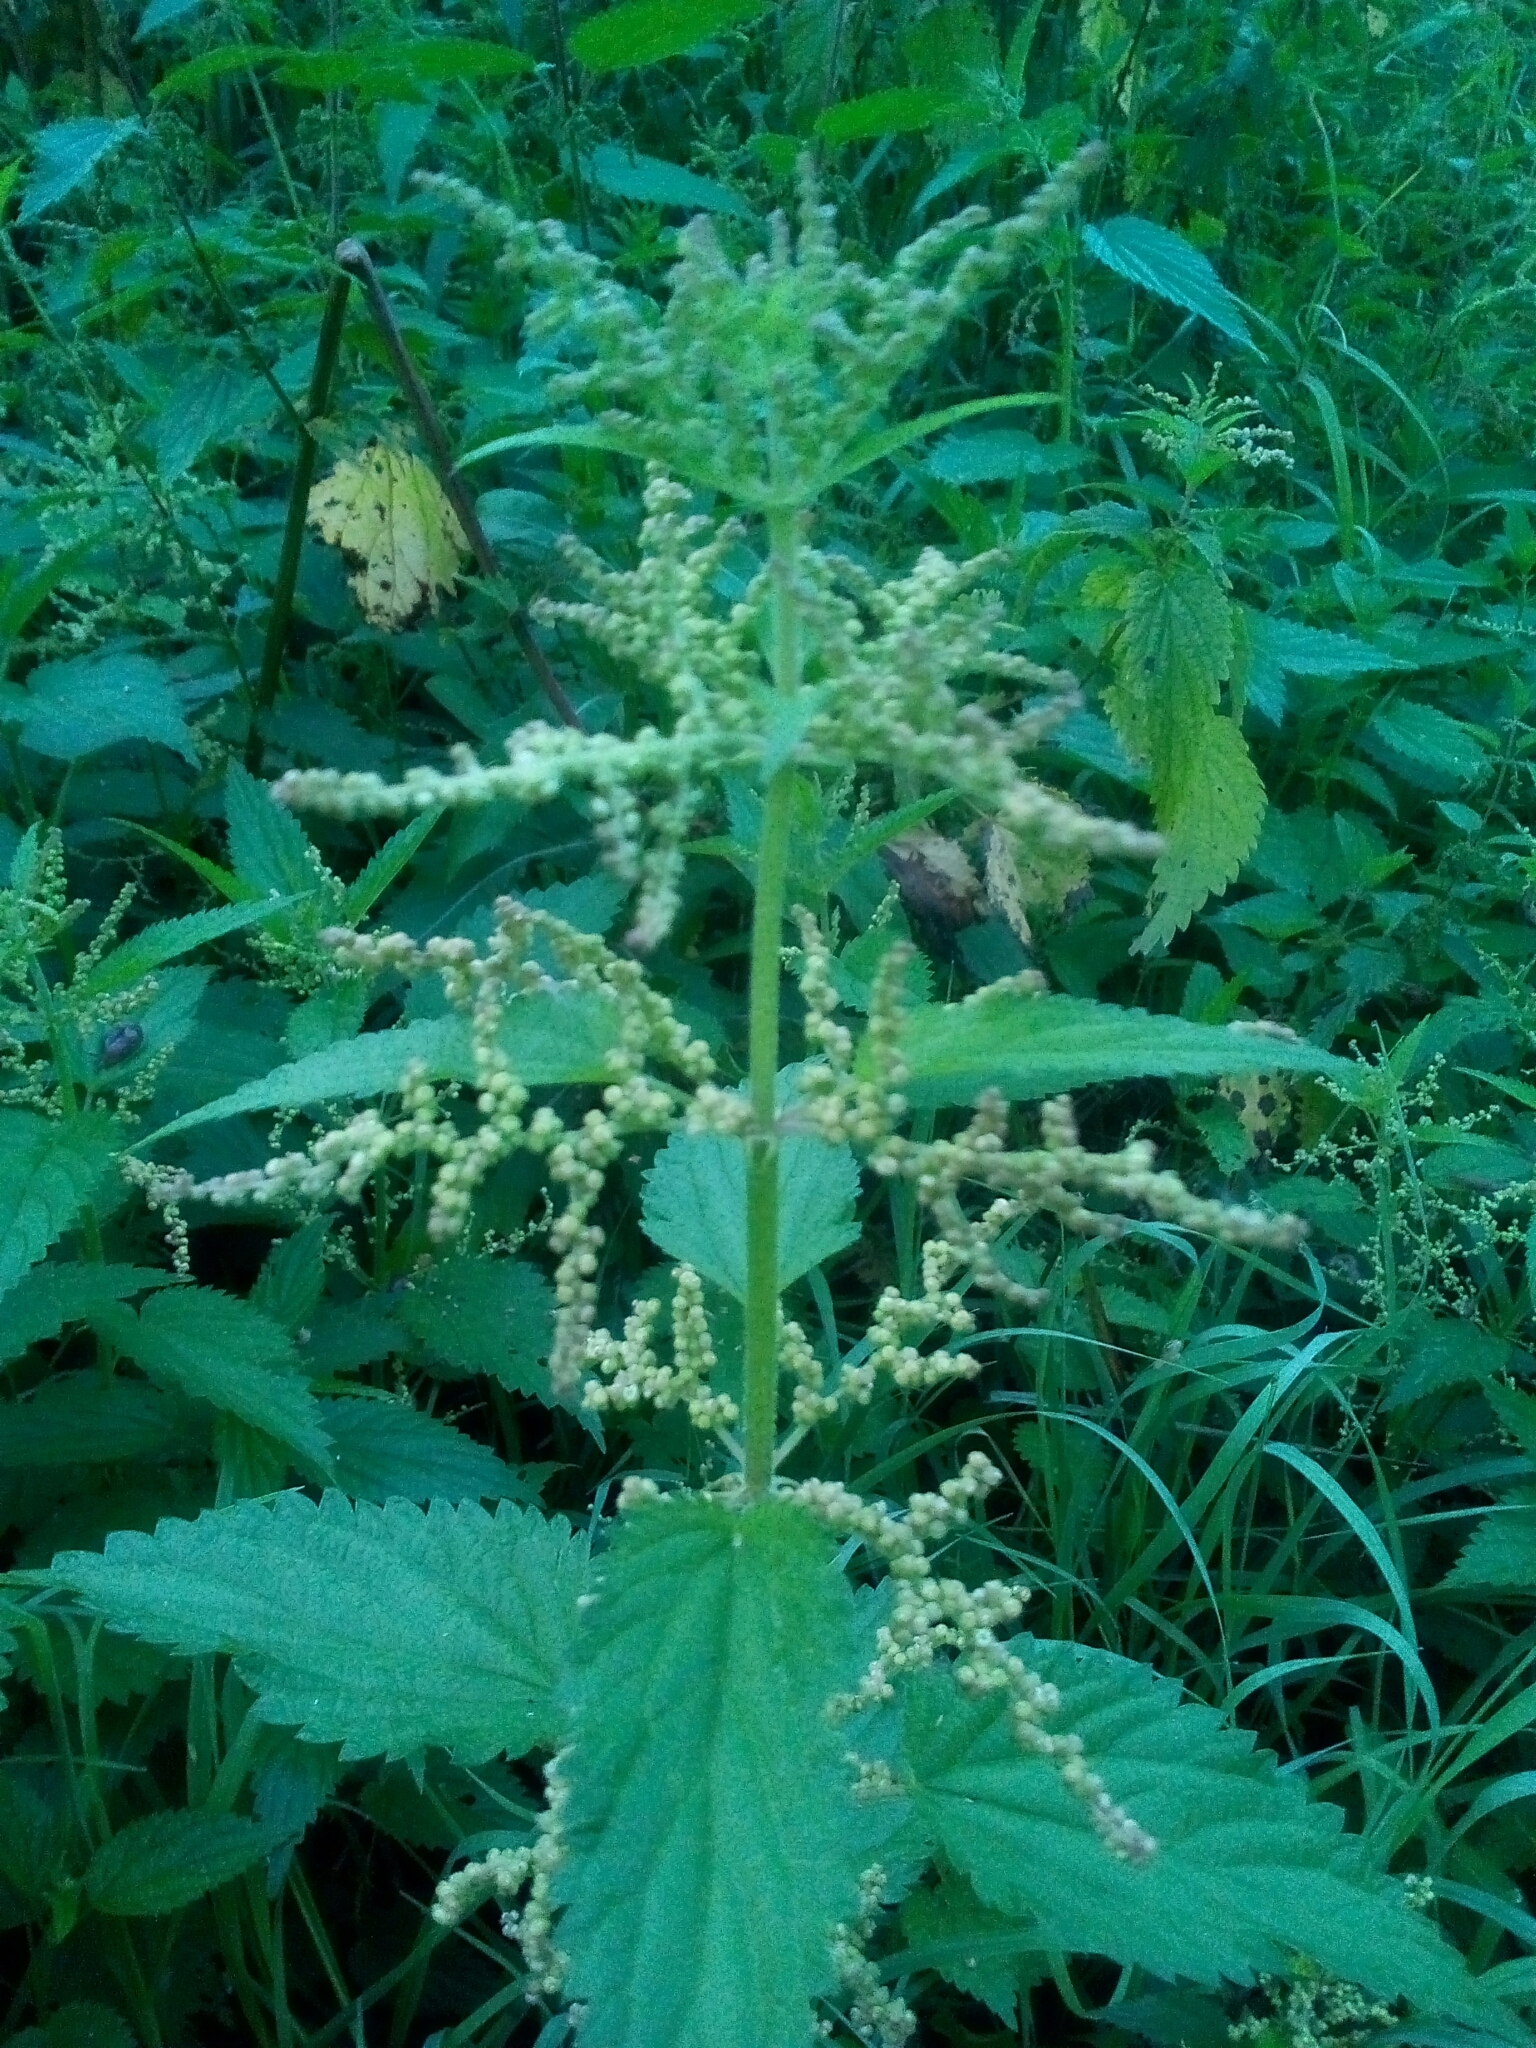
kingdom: Plantae
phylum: Tracheophyta
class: Magnoliopsida
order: Rosales
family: Urticaceae
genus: Urtica
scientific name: Urtica dioica
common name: Common nettle
